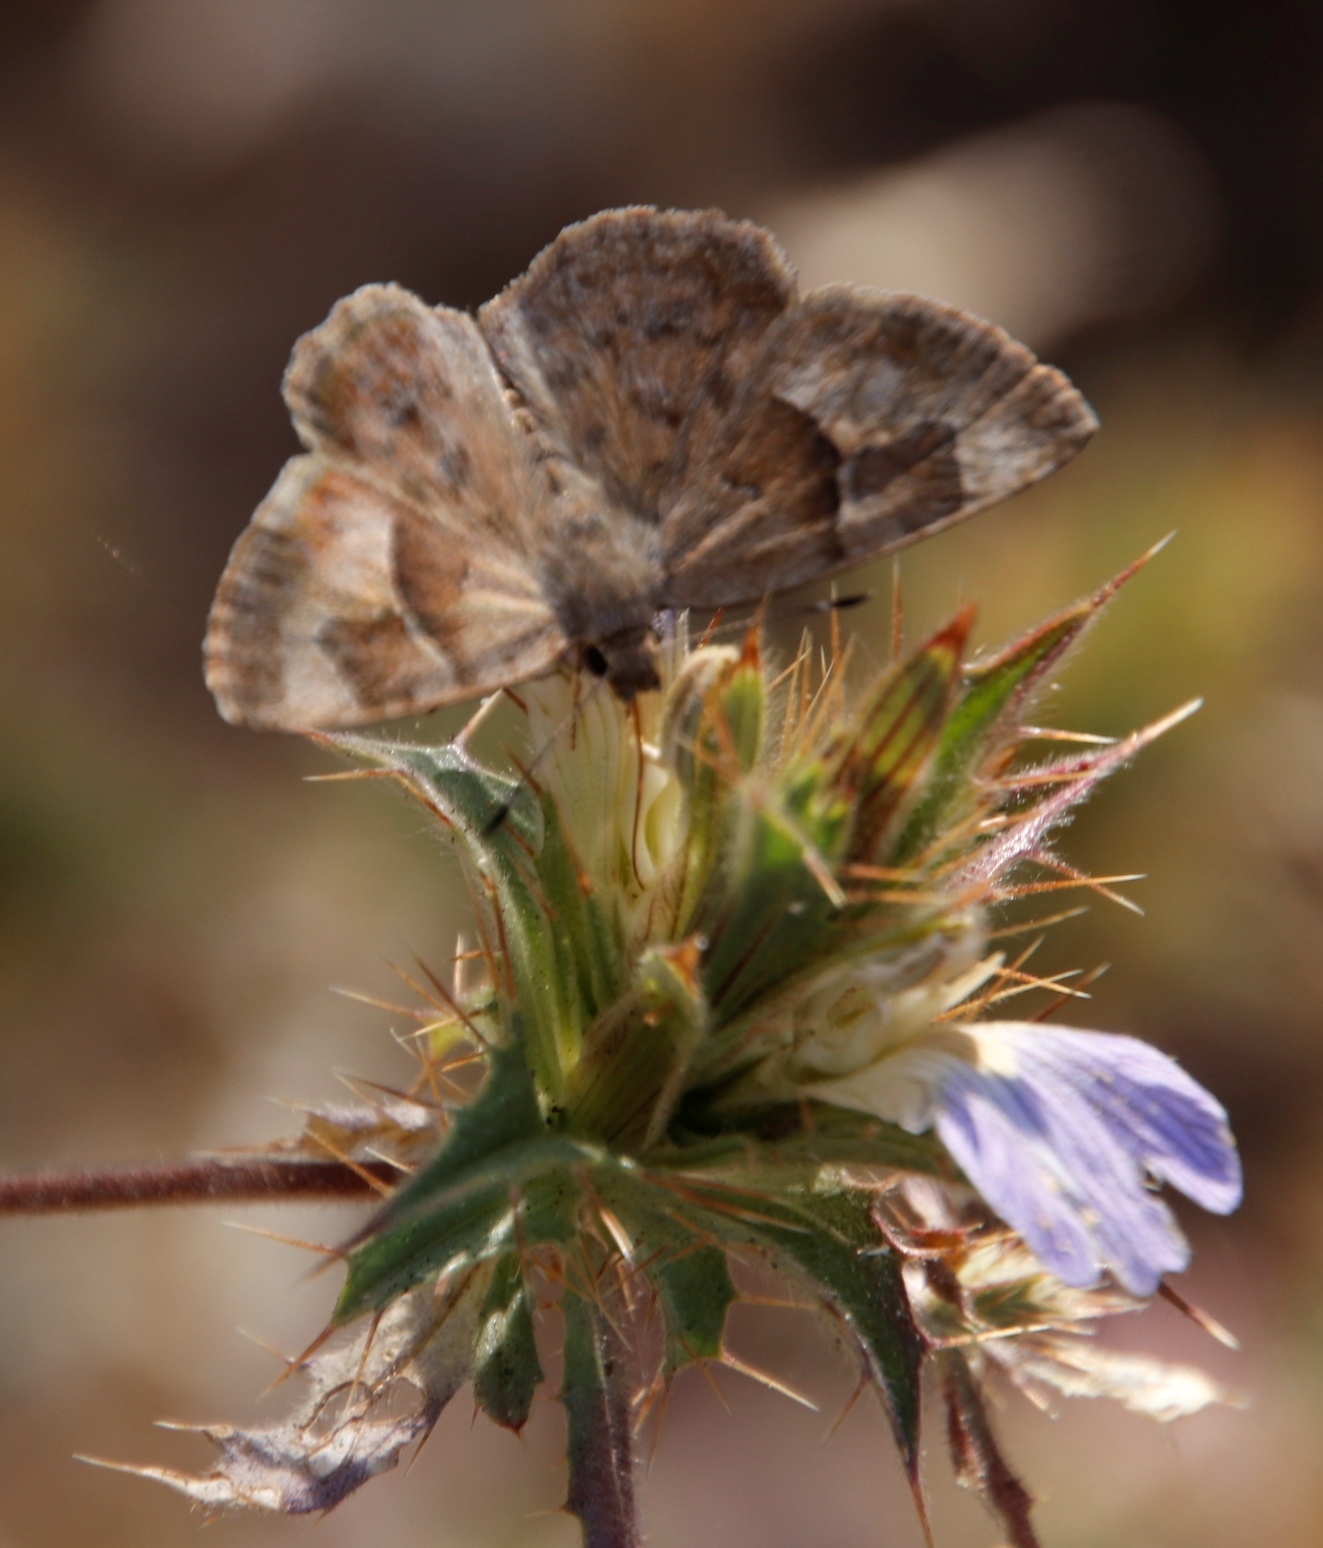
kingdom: Animalia
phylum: Arthropoda
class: Insecta
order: Lepidoptera
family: Hesperiidae
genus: Sarangesa
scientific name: Sarangesa phidyle
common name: Small elfin
